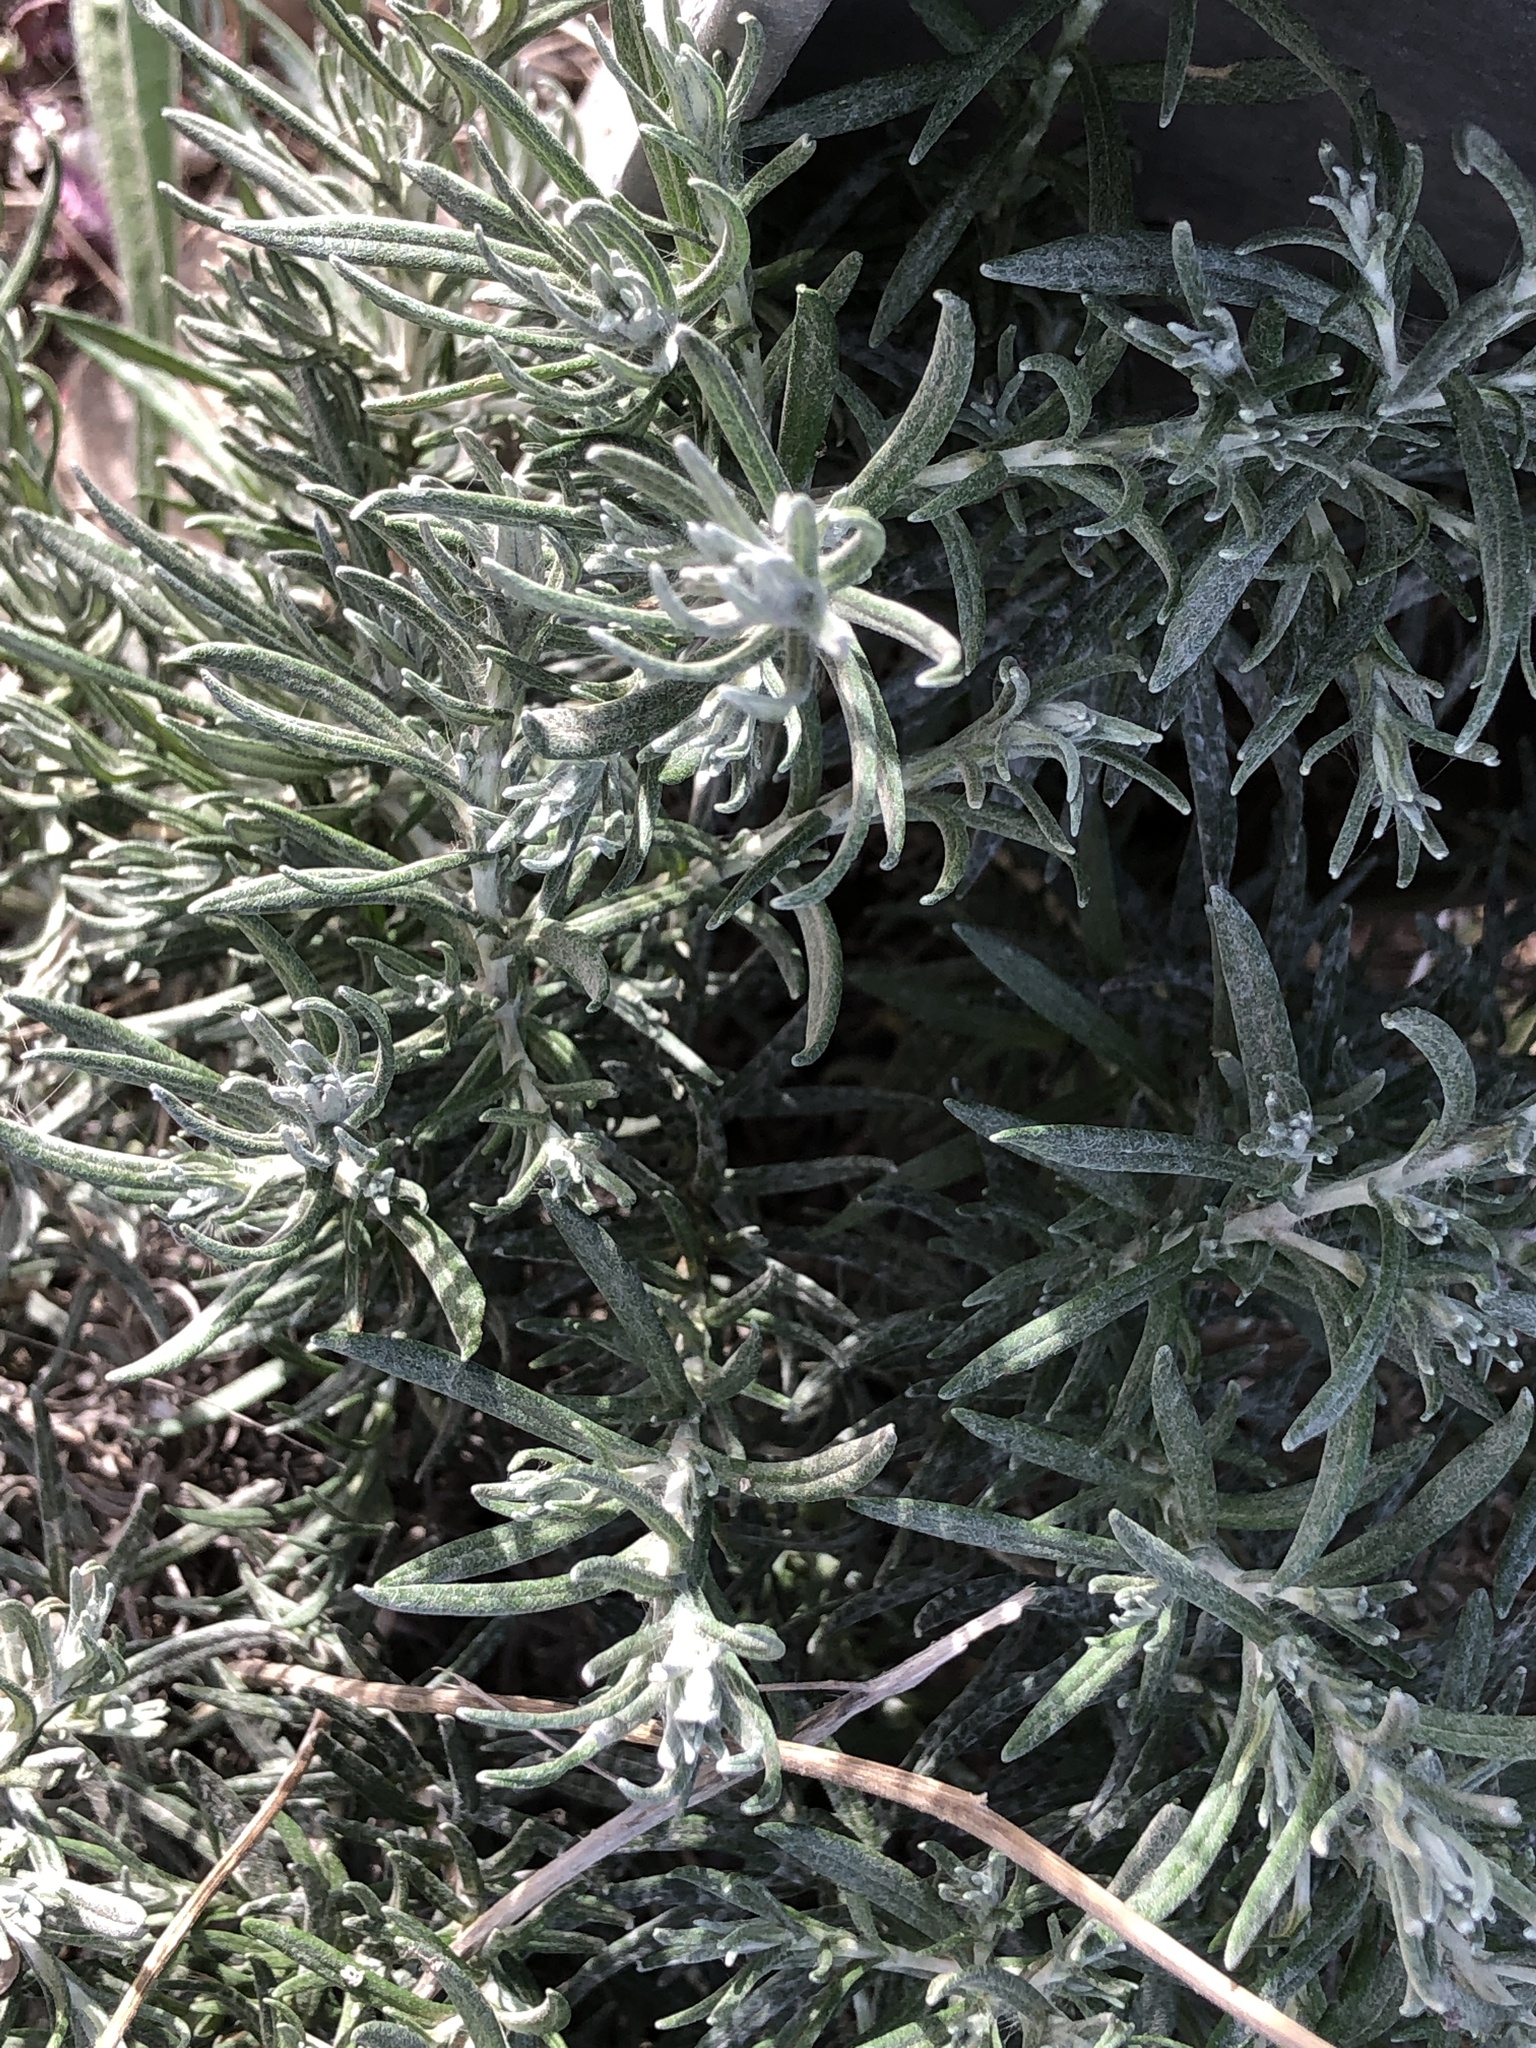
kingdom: Plantae
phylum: Tracheophyta
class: Magnoliopsida
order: Asterales
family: Asteraceae
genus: Helichrysum
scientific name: Helichrysum stoechas
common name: Goldilocks
